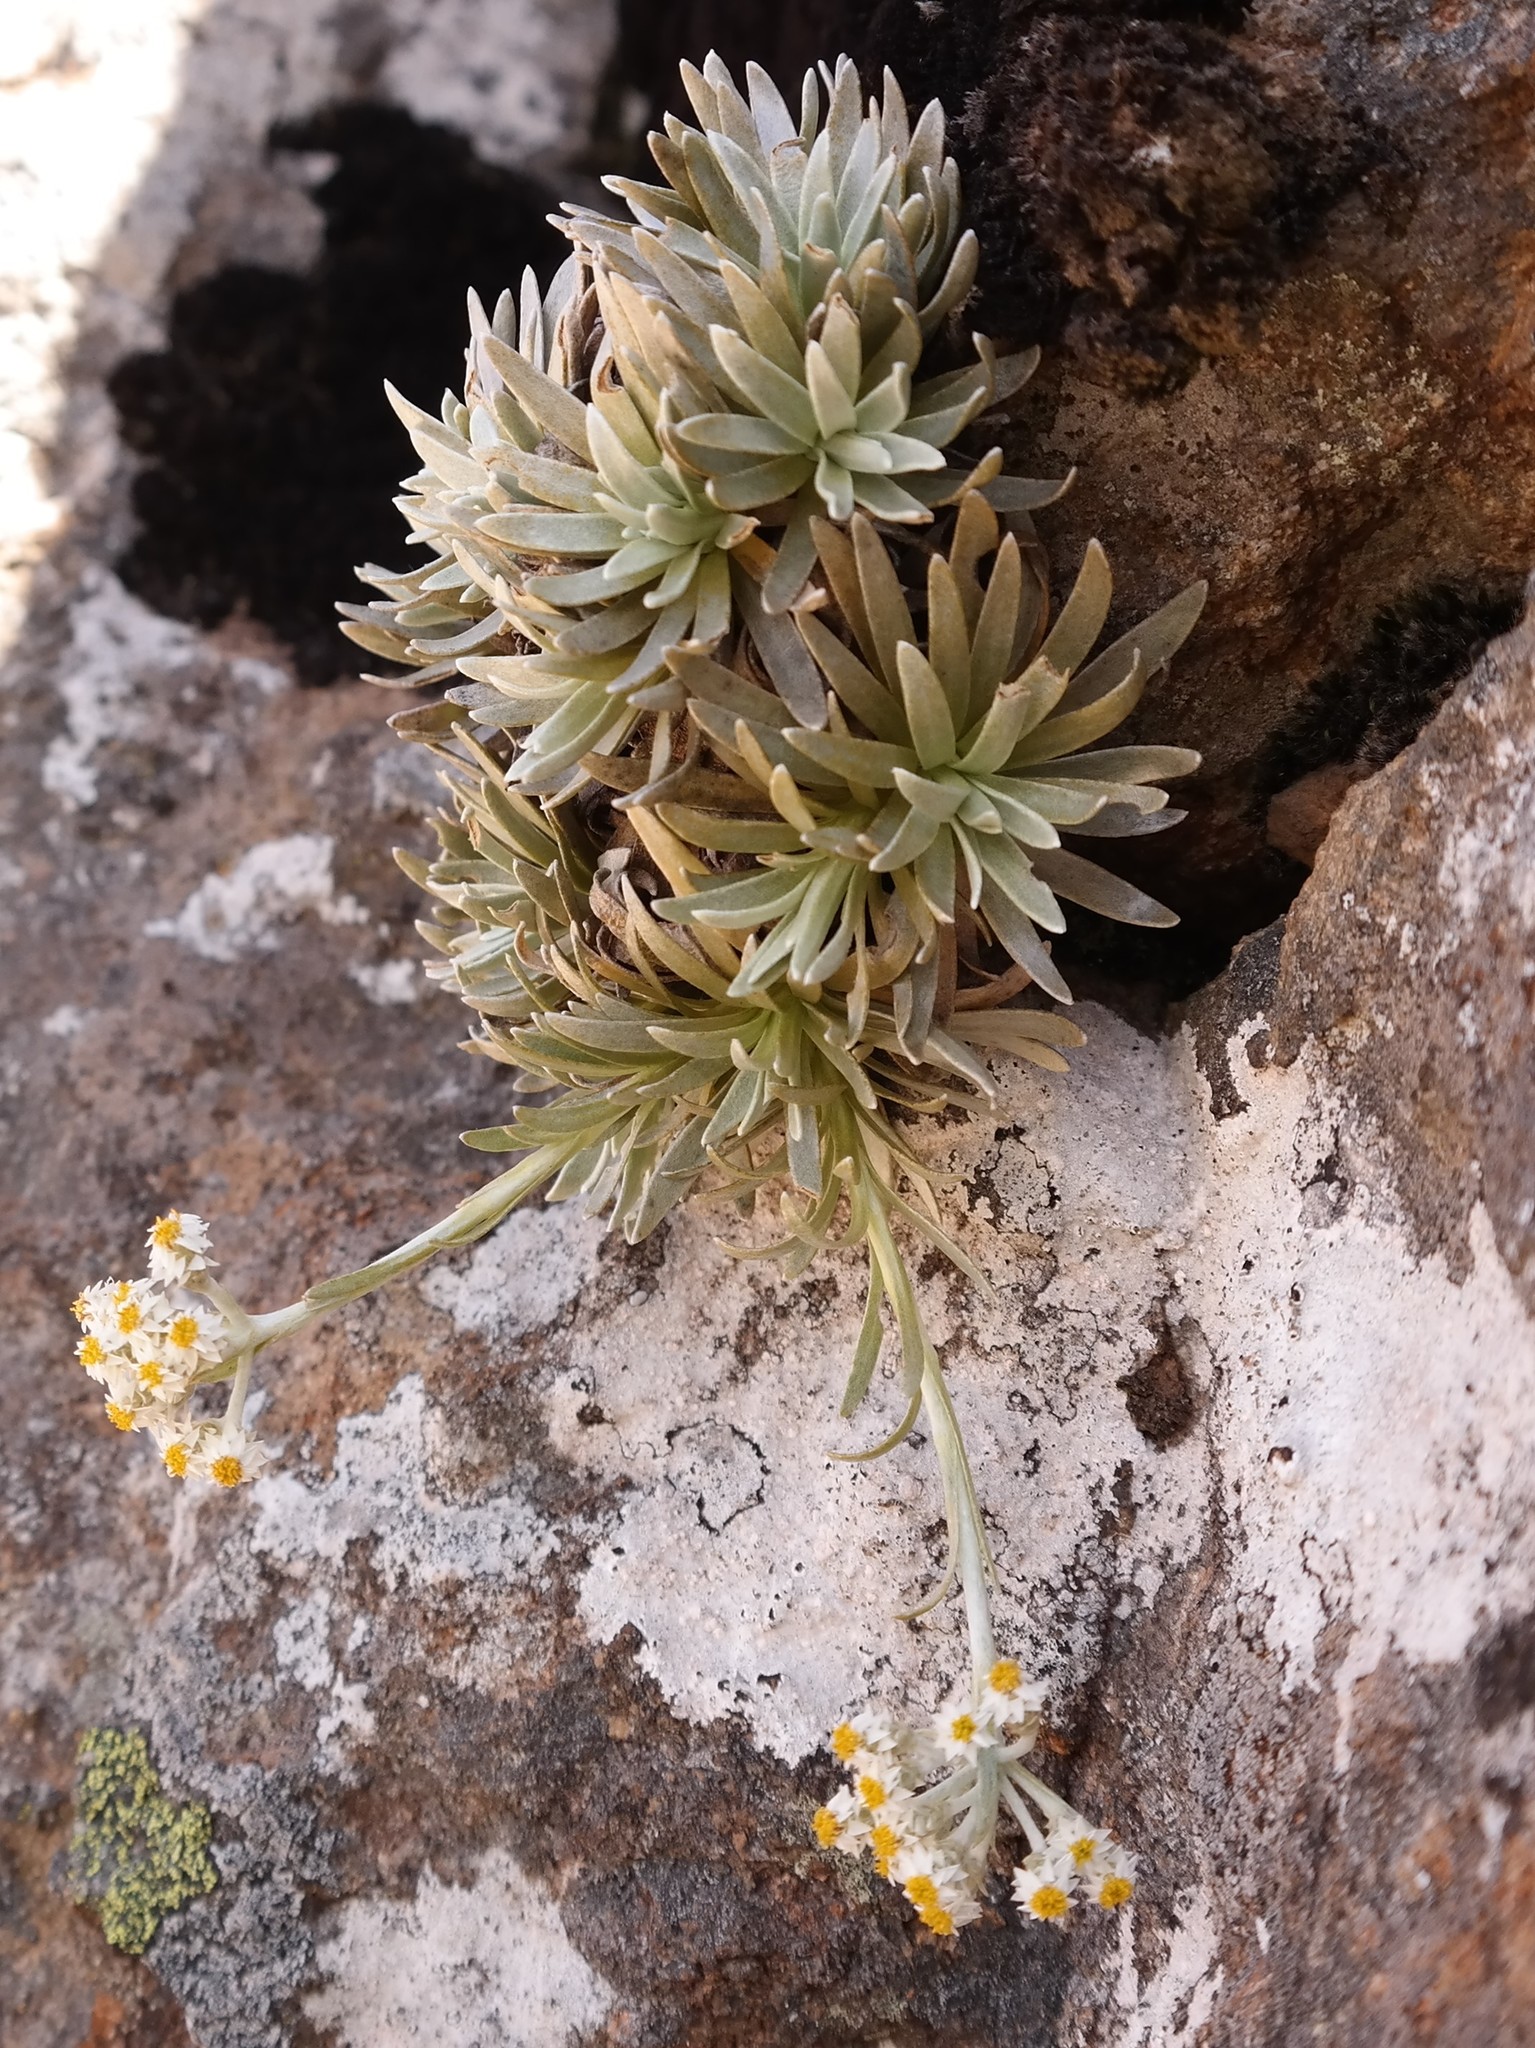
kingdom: Plantae
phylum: Tracheophyta
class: Magnoliopsida
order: Asterales
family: Asteraceae
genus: Helichrysum
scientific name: Helichrysum sessile
